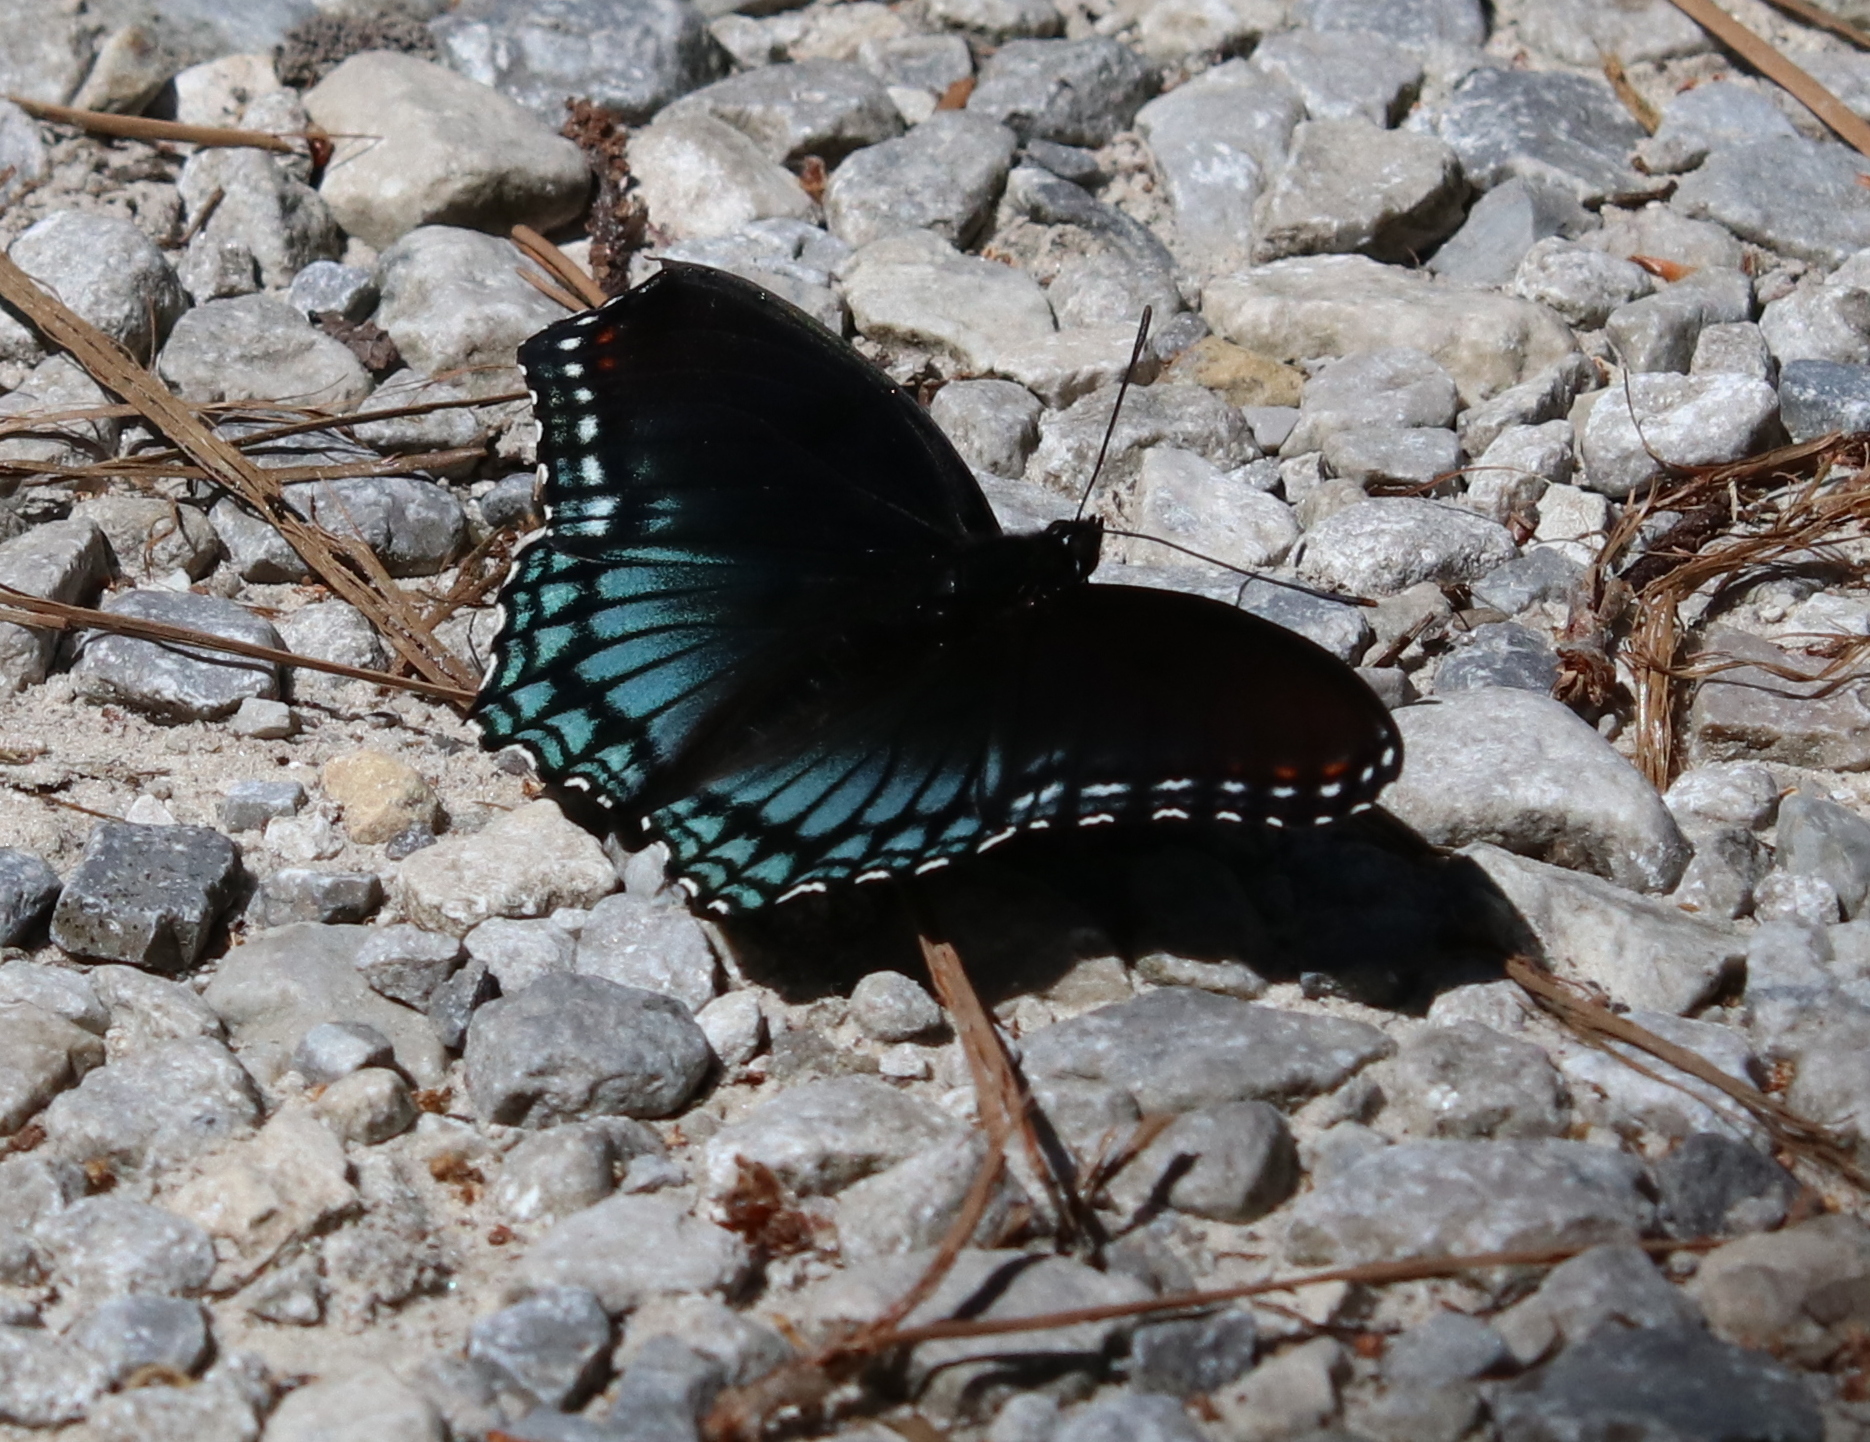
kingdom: Animalia
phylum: Arthropoda
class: Insecta
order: Lepidoptera
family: Nymphalidae
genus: Limenitis
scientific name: Limenitis astyanax
